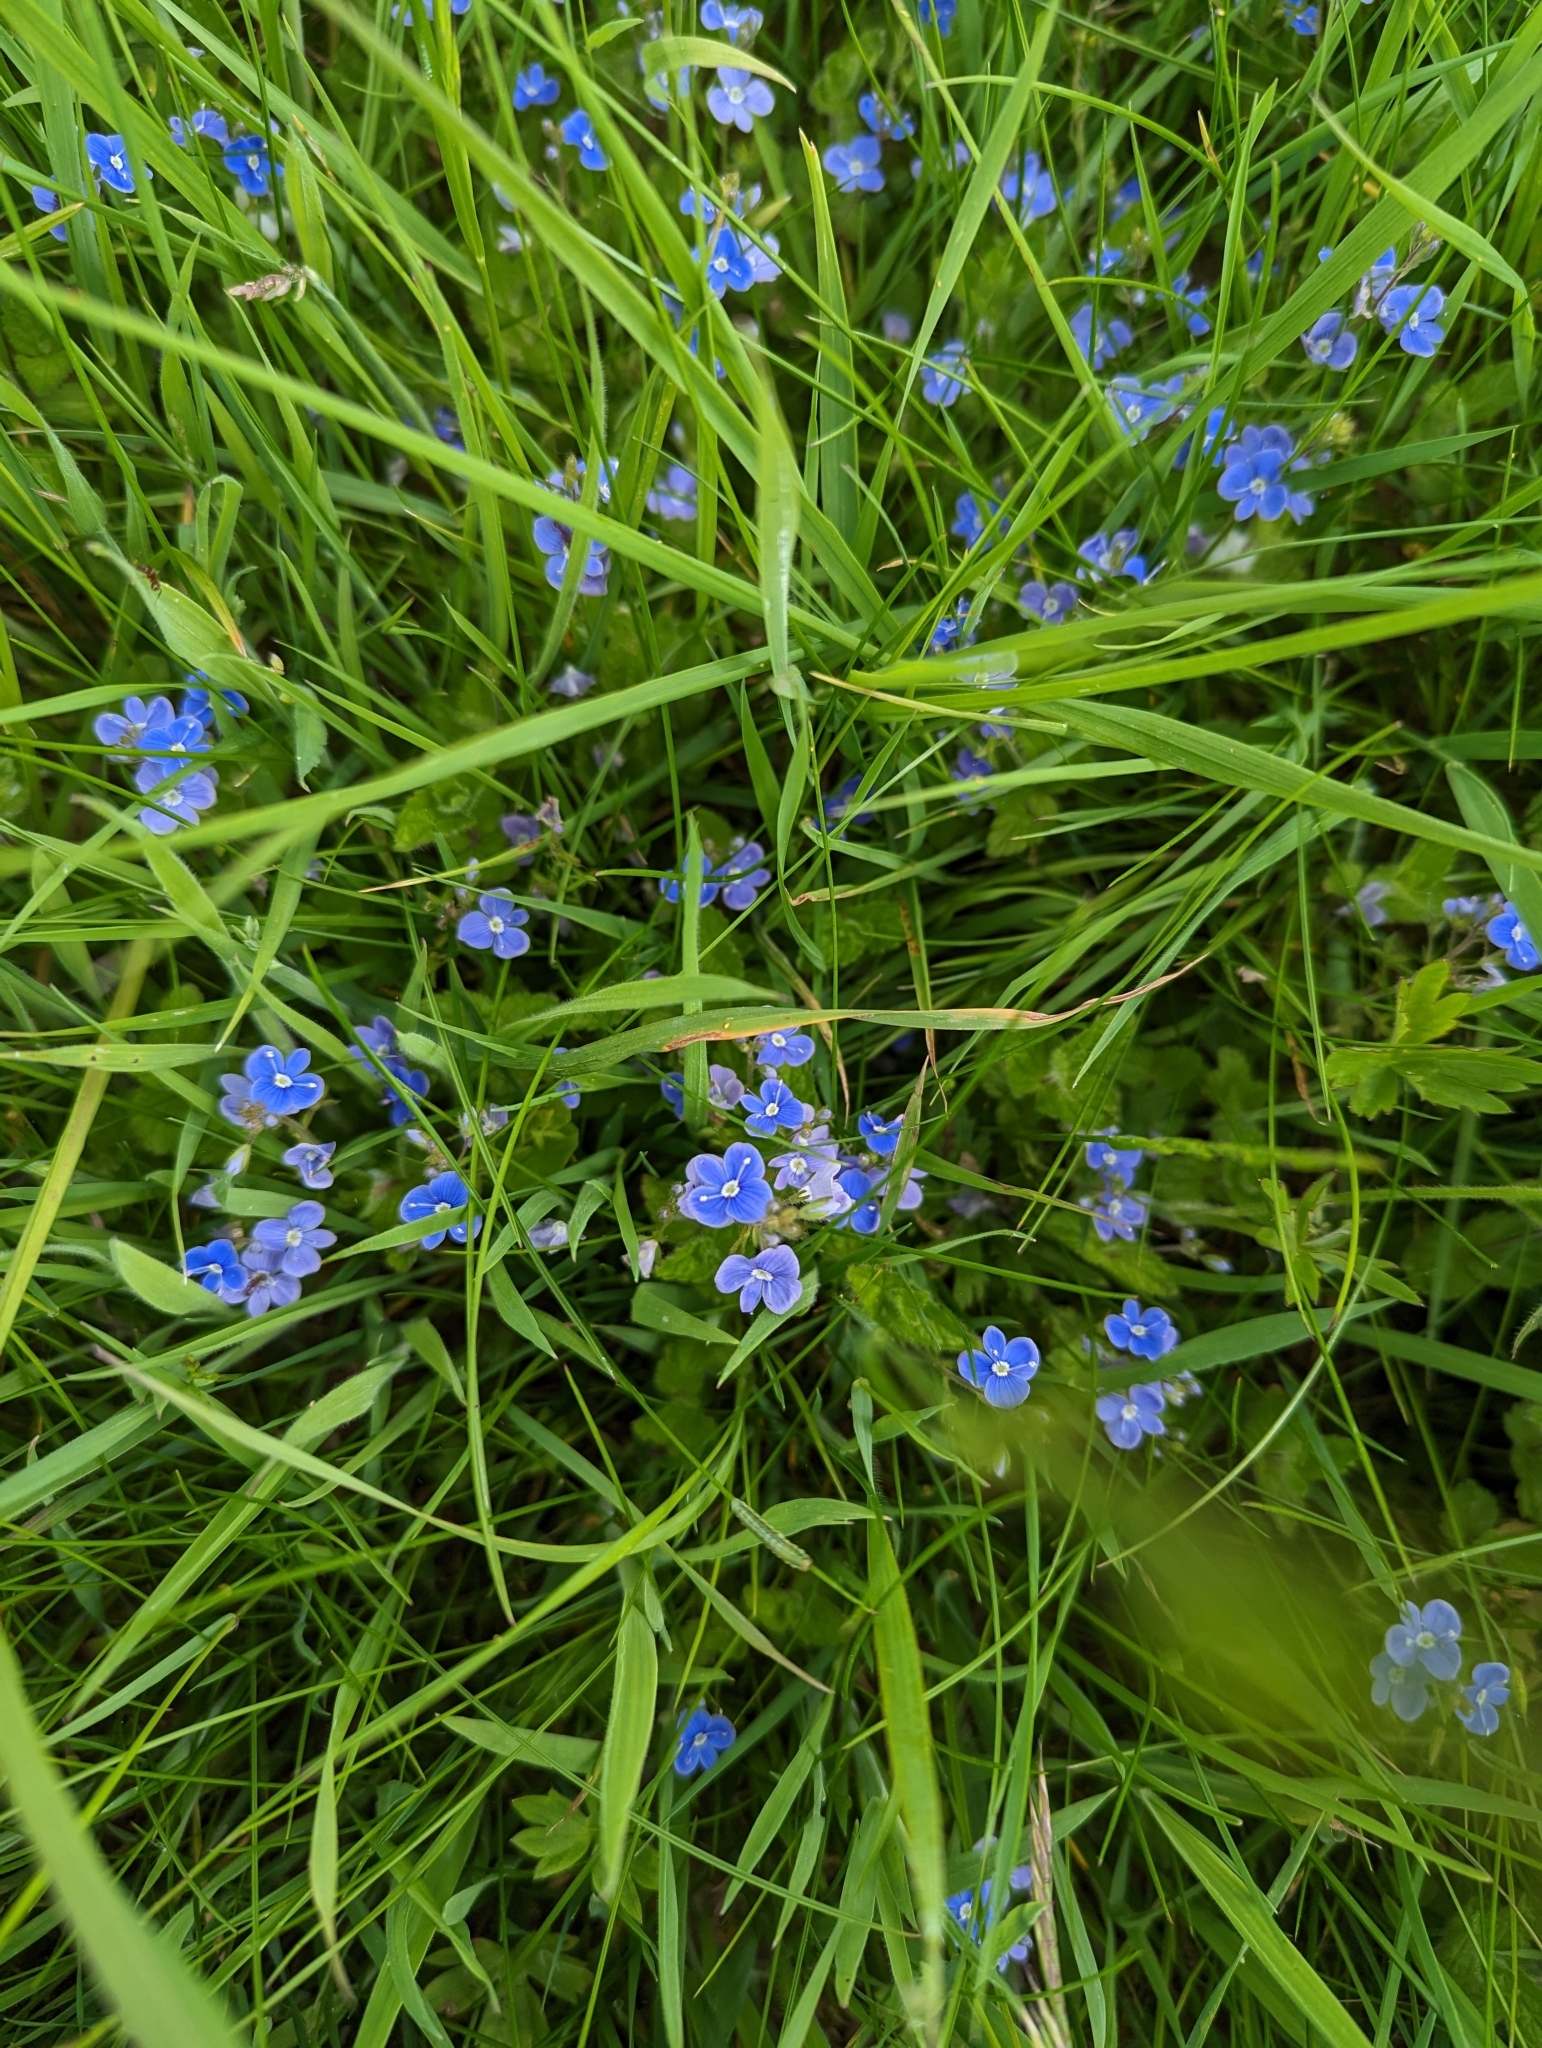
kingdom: Plantae
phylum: Tracheophyta
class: Magnoliopsida
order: Lamiales
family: Plantaginaceae
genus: Veronica
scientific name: Veronica chamaedrys
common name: Germander speedwell
